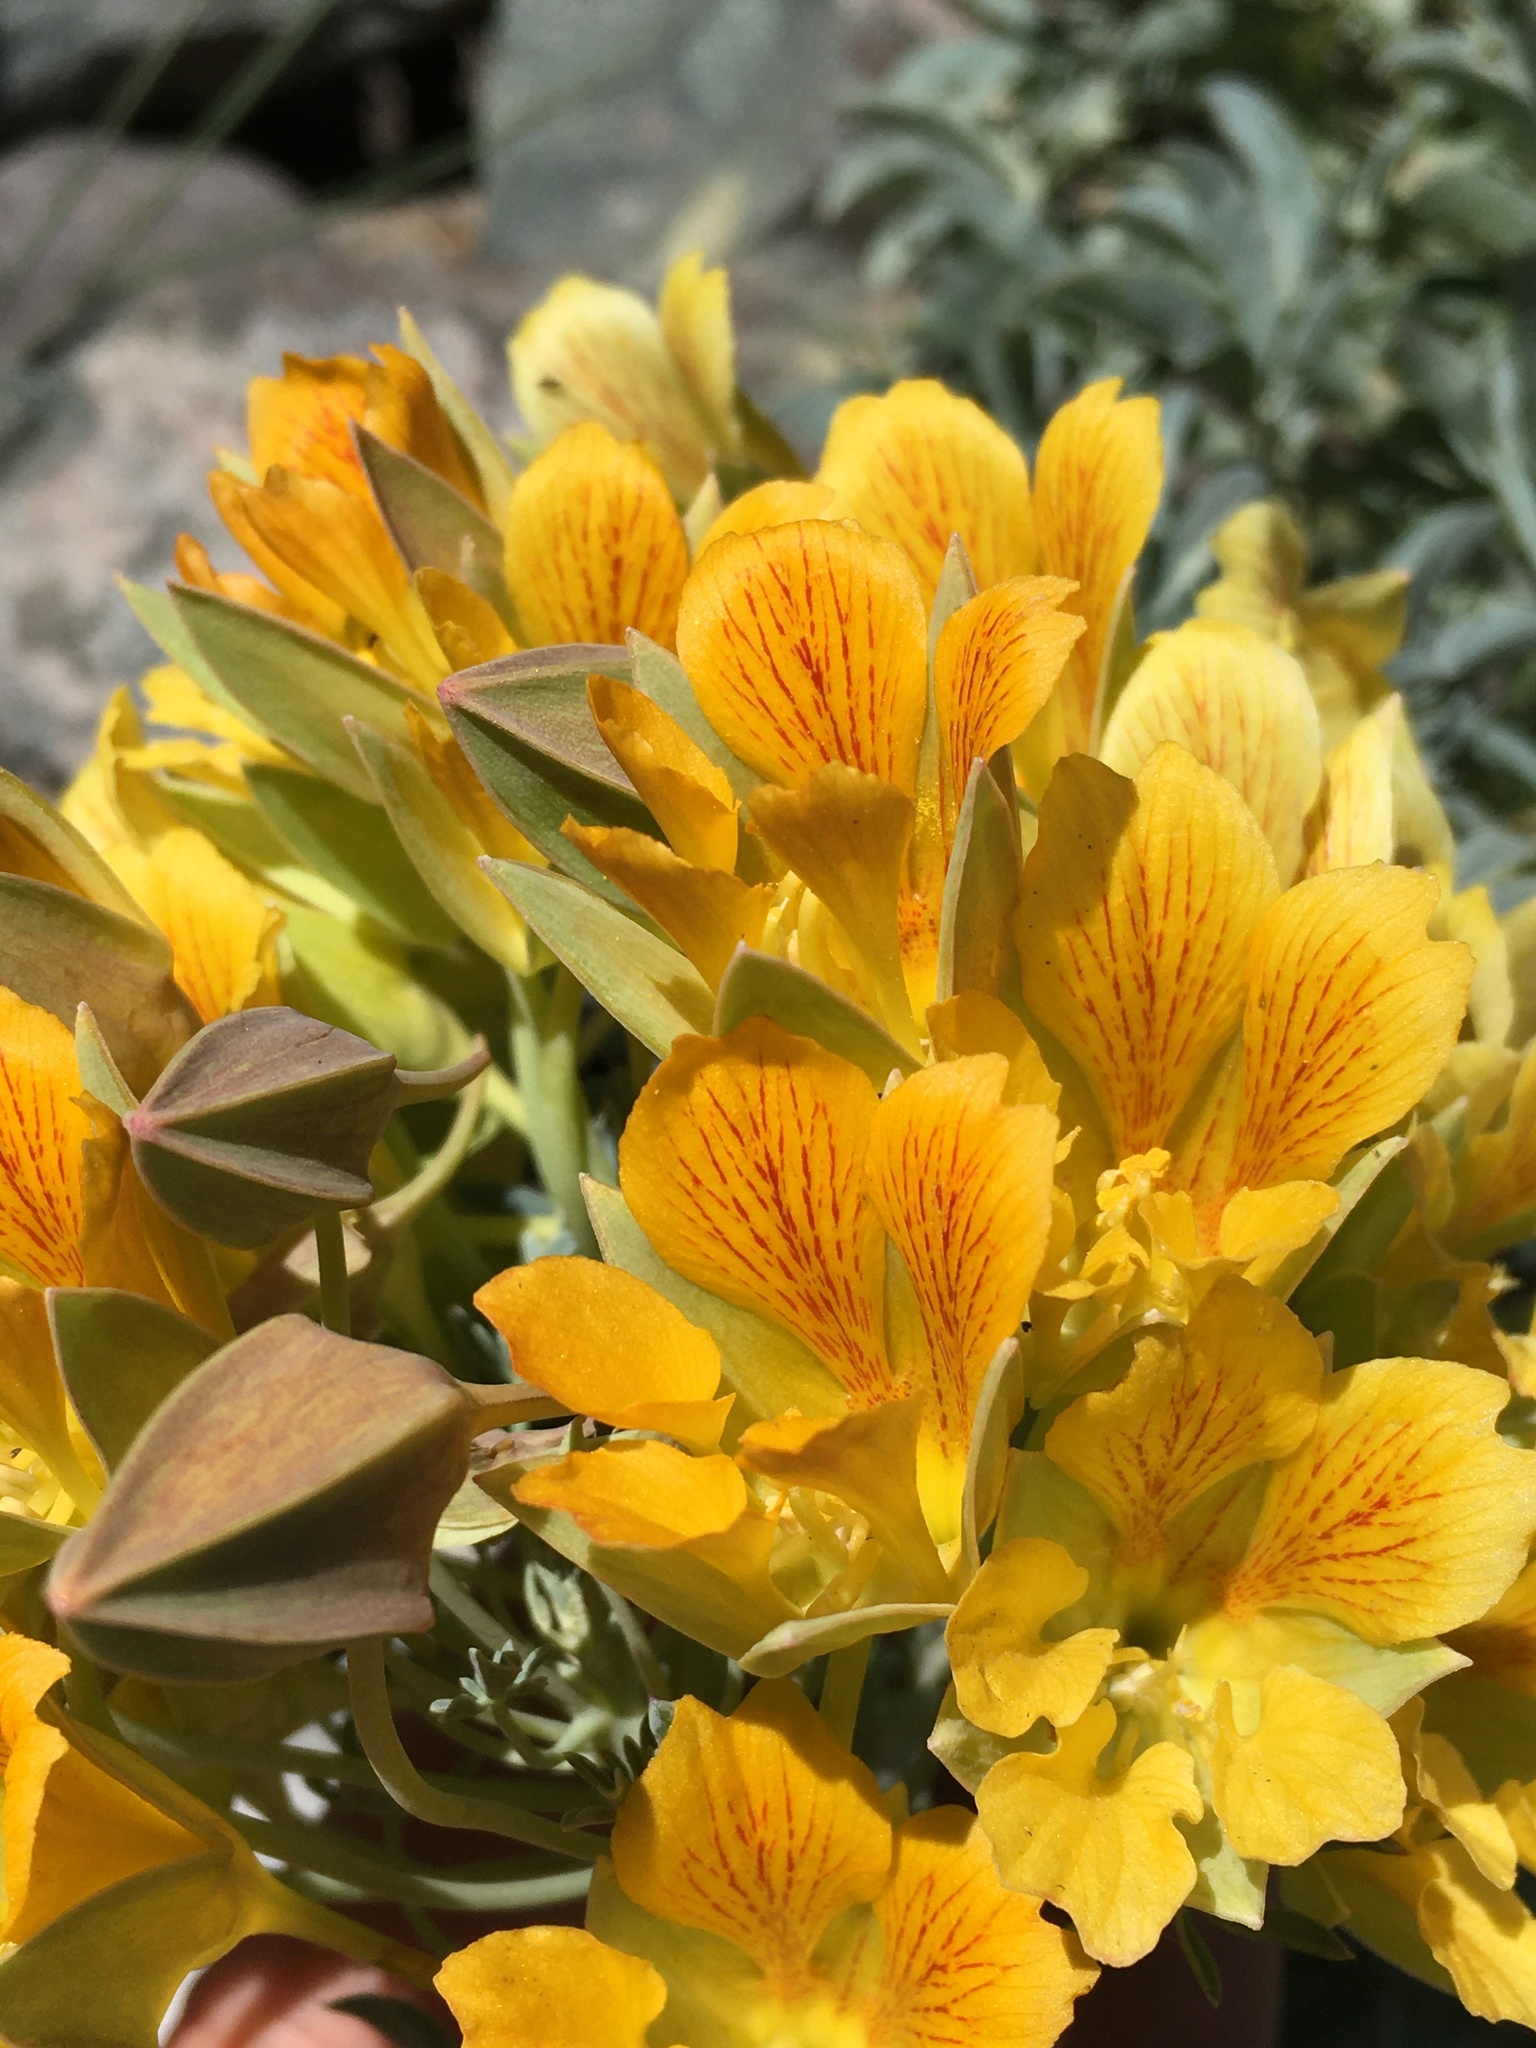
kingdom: Plantae
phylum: Tracheophyta
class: Magnoliopsida
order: Brassicales
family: Tropaeolaceae
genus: Tropaeolum
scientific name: Tropaeolum polyphyllum
